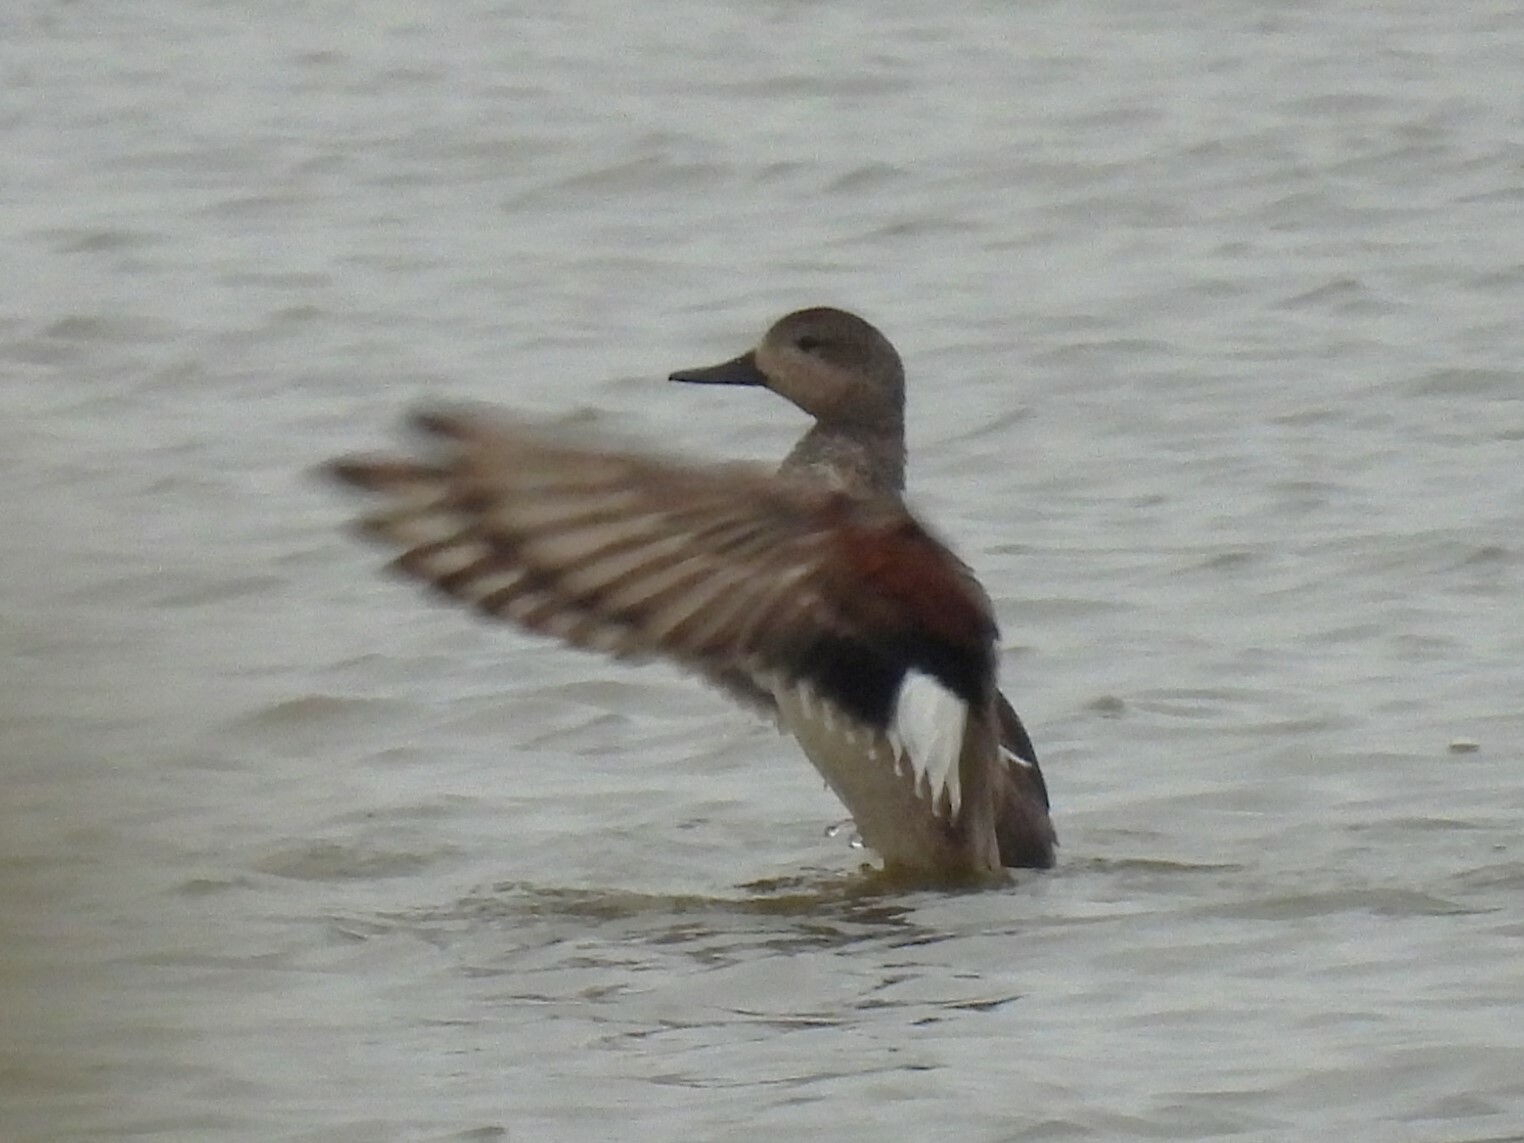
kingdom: Animalia
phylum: Chordata
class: Aves
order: Anseriformes
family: Anatidae
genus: Mareca
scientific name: Mareca strepera
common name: Gadwall
